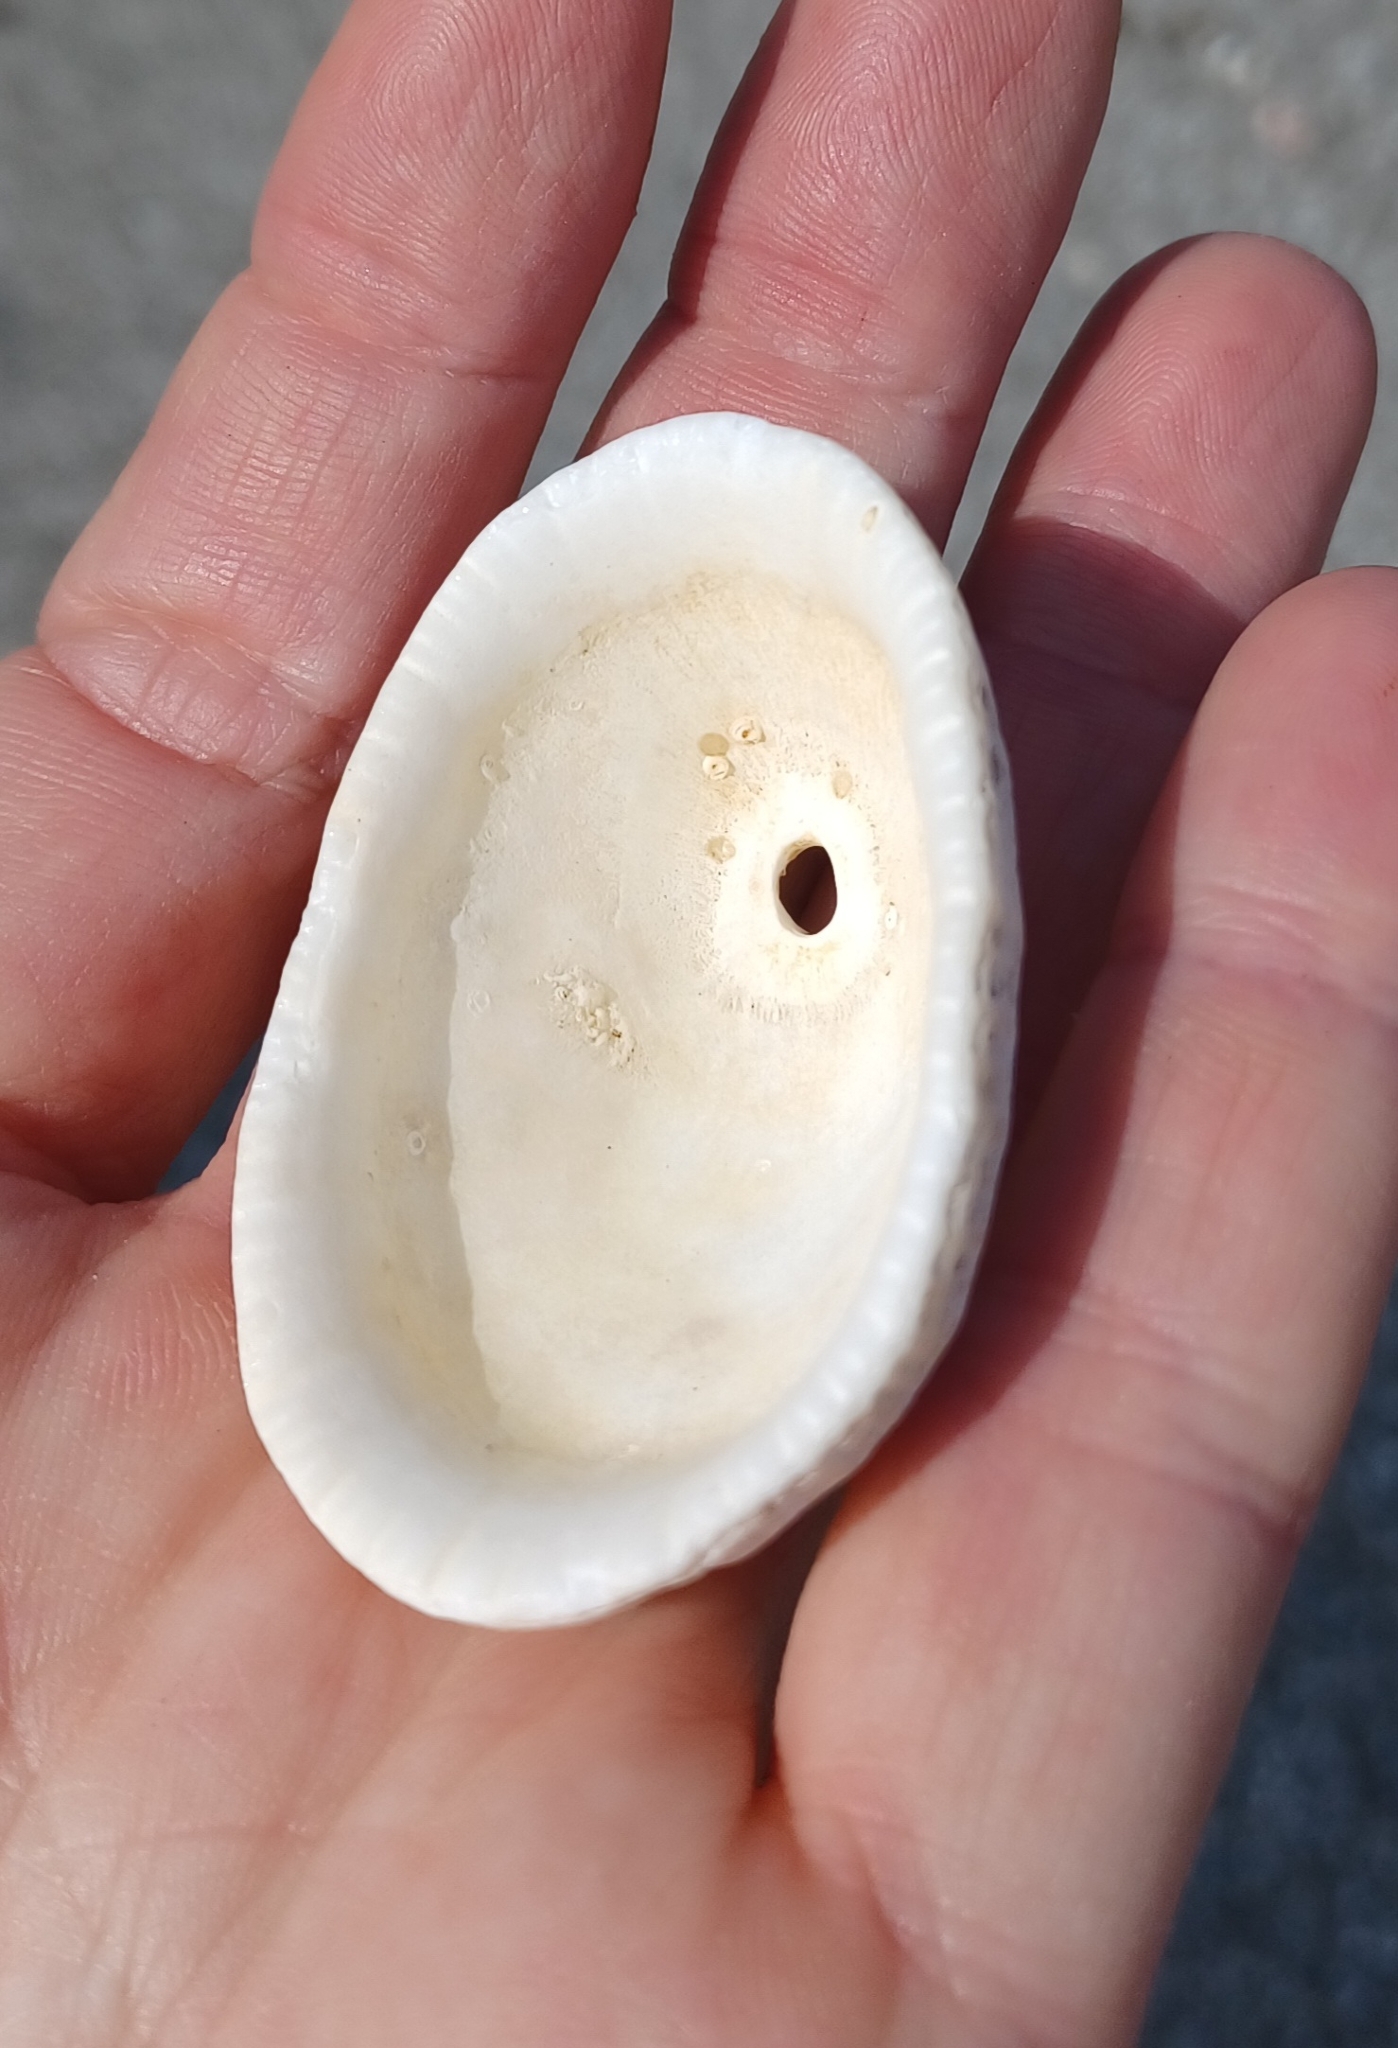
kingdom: Animalia
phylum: Mollusca
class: Gastropoda
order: Lepetellida
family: Fissurellidae
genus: Diodora
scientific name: Diodora lineata
